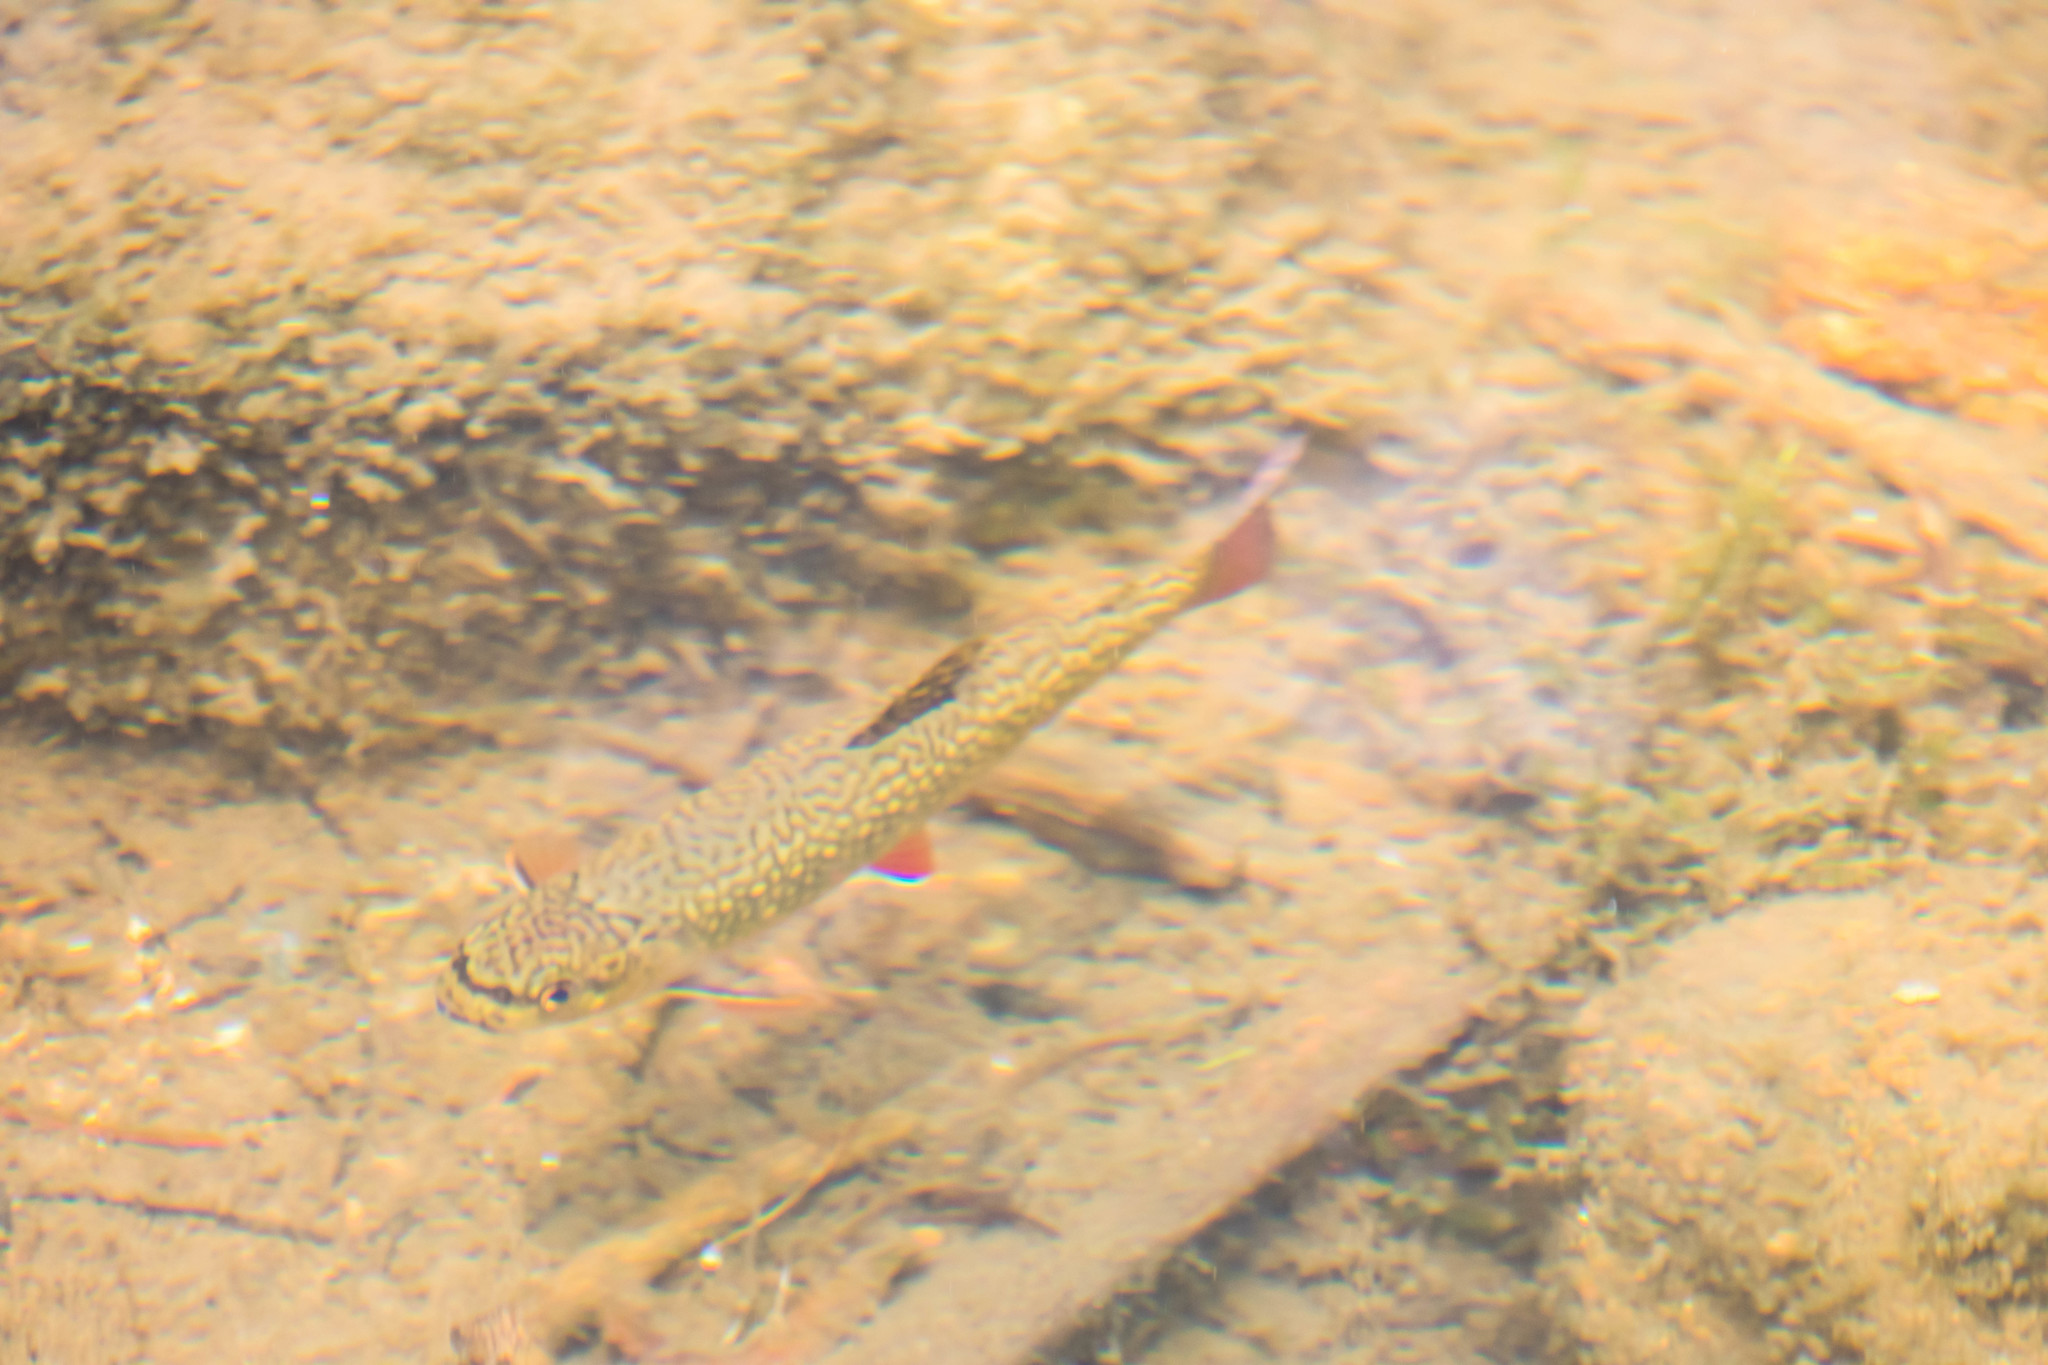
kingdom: Animalia
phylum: Chordata
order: Salmoniformes
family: Salmonidae
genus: Salvelinus
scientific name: Salvelinus fontinalis
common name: Brook trout
